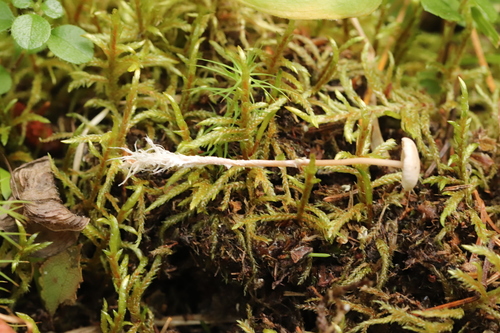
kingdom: Fungi
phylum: Basidiomycota
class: Agaricomycetes
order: Agaricales
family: Tricholomataceae
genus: Collybia
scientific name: Collybia cirrhata
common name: Piggyback shanklet
